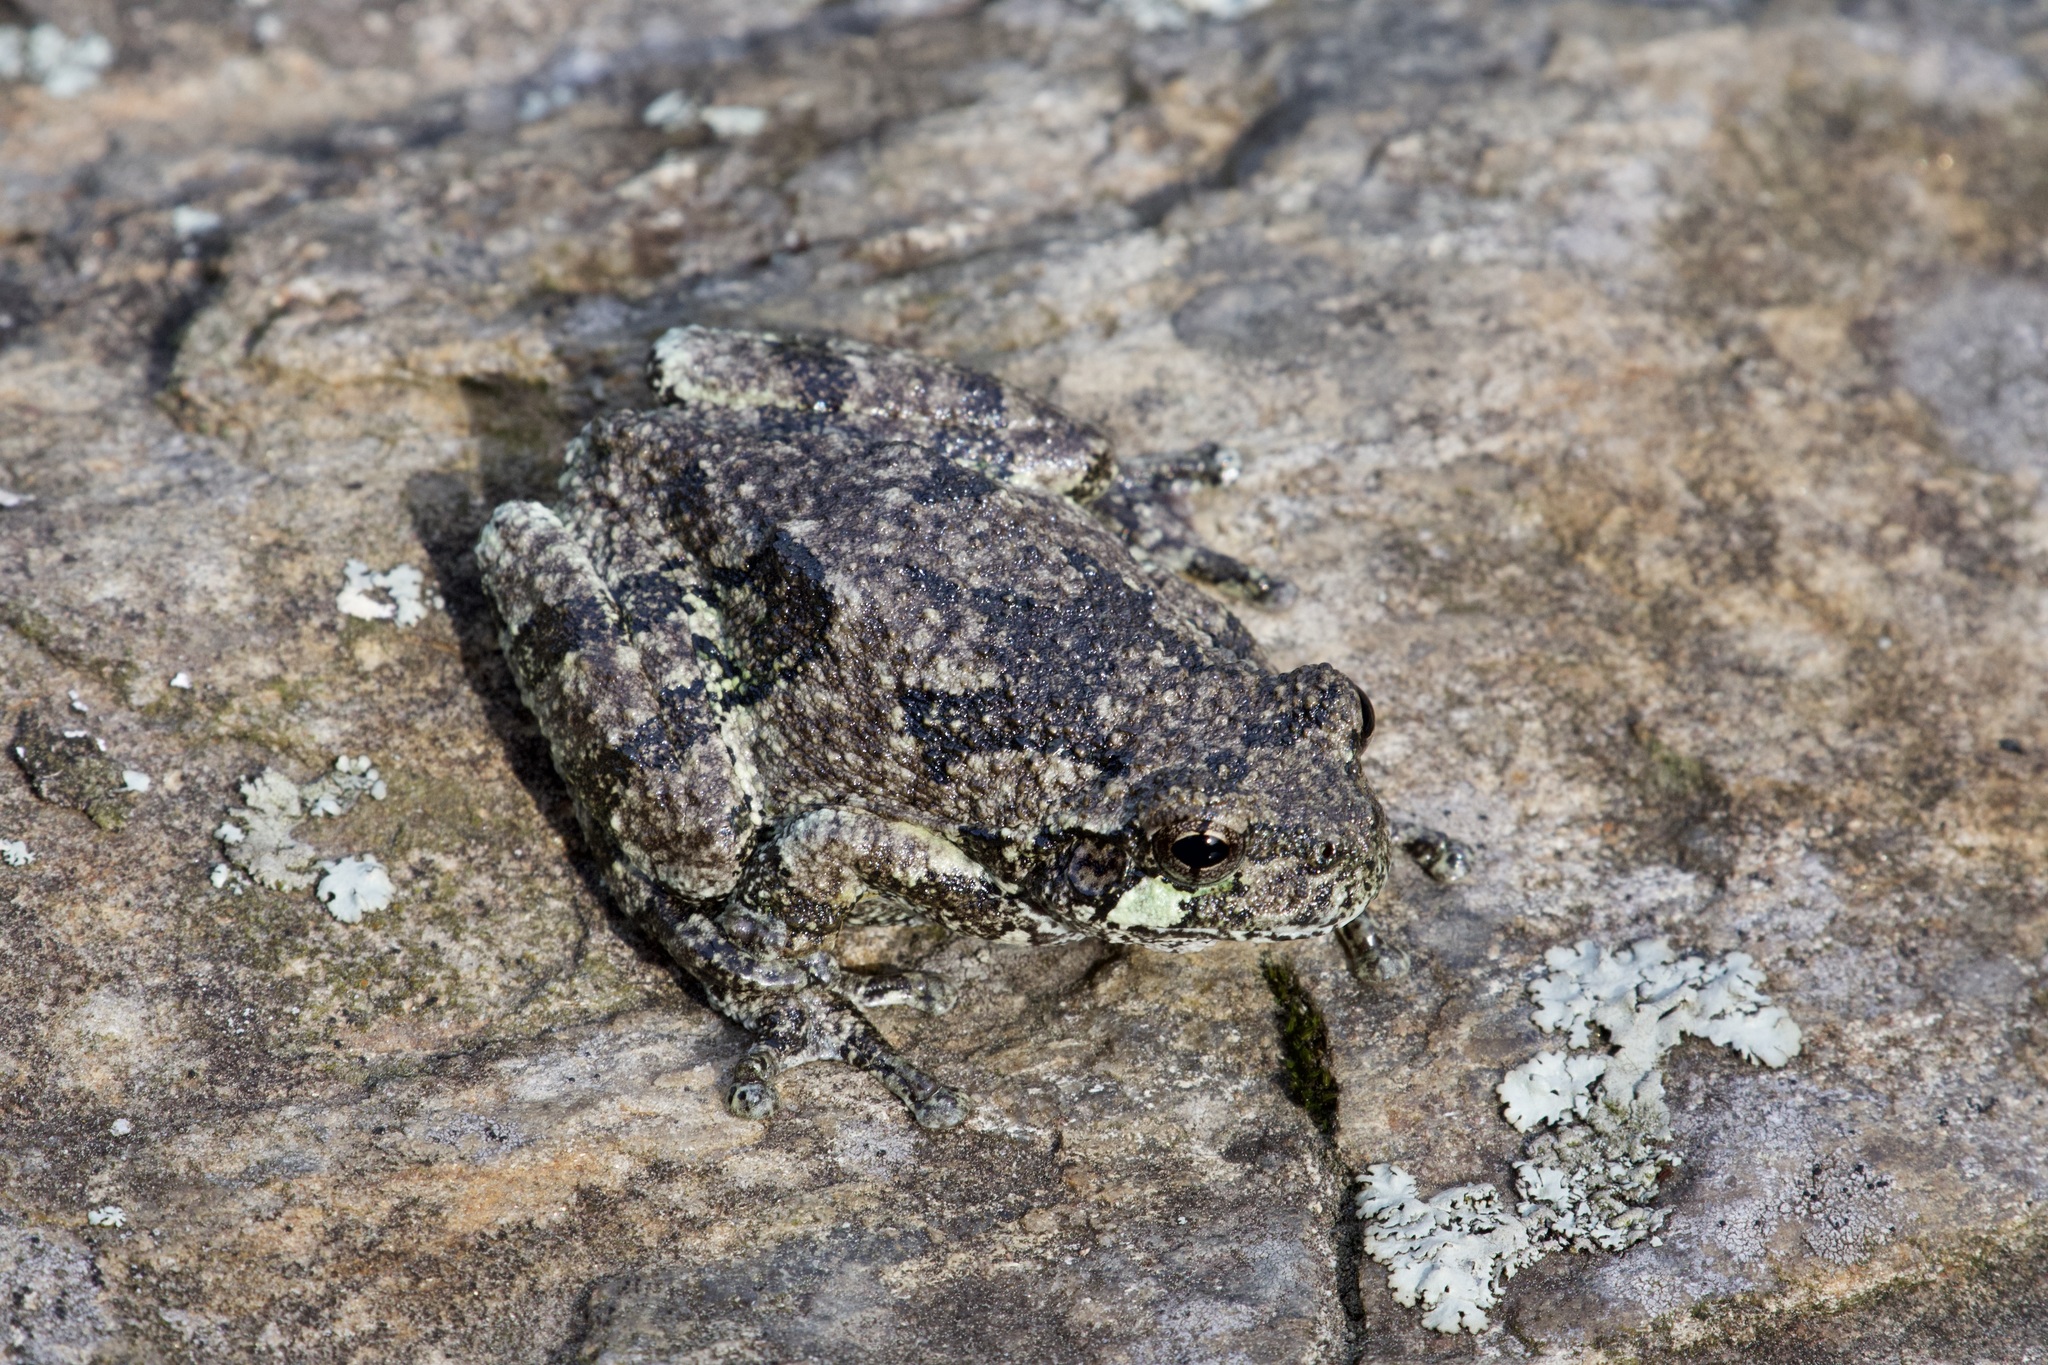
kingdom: Animalia
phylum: Chordata
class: Amphibia
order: Anura
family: Hylidae
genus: Dryophytes
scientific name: Dryophytes versicolor
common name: Gray treefrog
